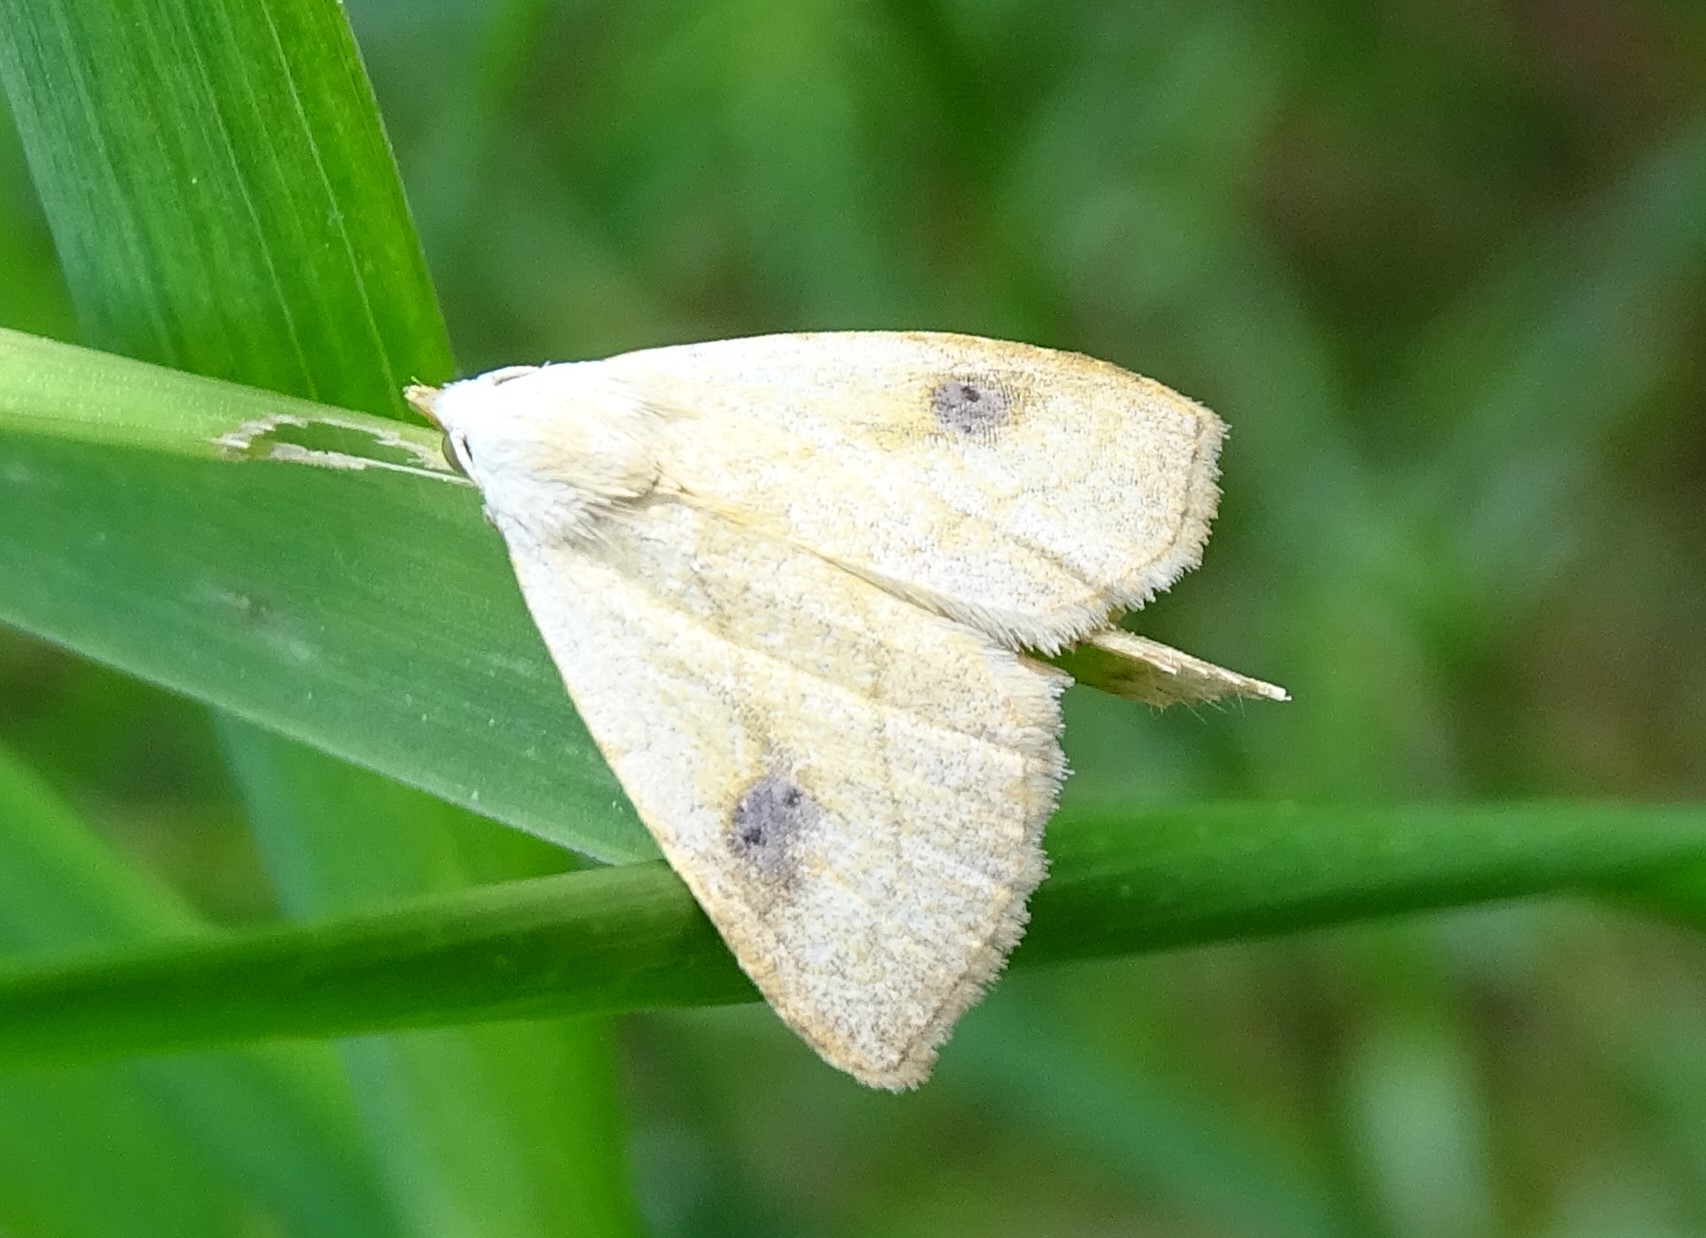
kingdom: Animalia
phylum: Arthropoda
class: Insecta
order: Lepidoptera
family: Erebidae
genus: Rivula
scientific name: Rivula propinqualis
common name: Spotted grass moth
